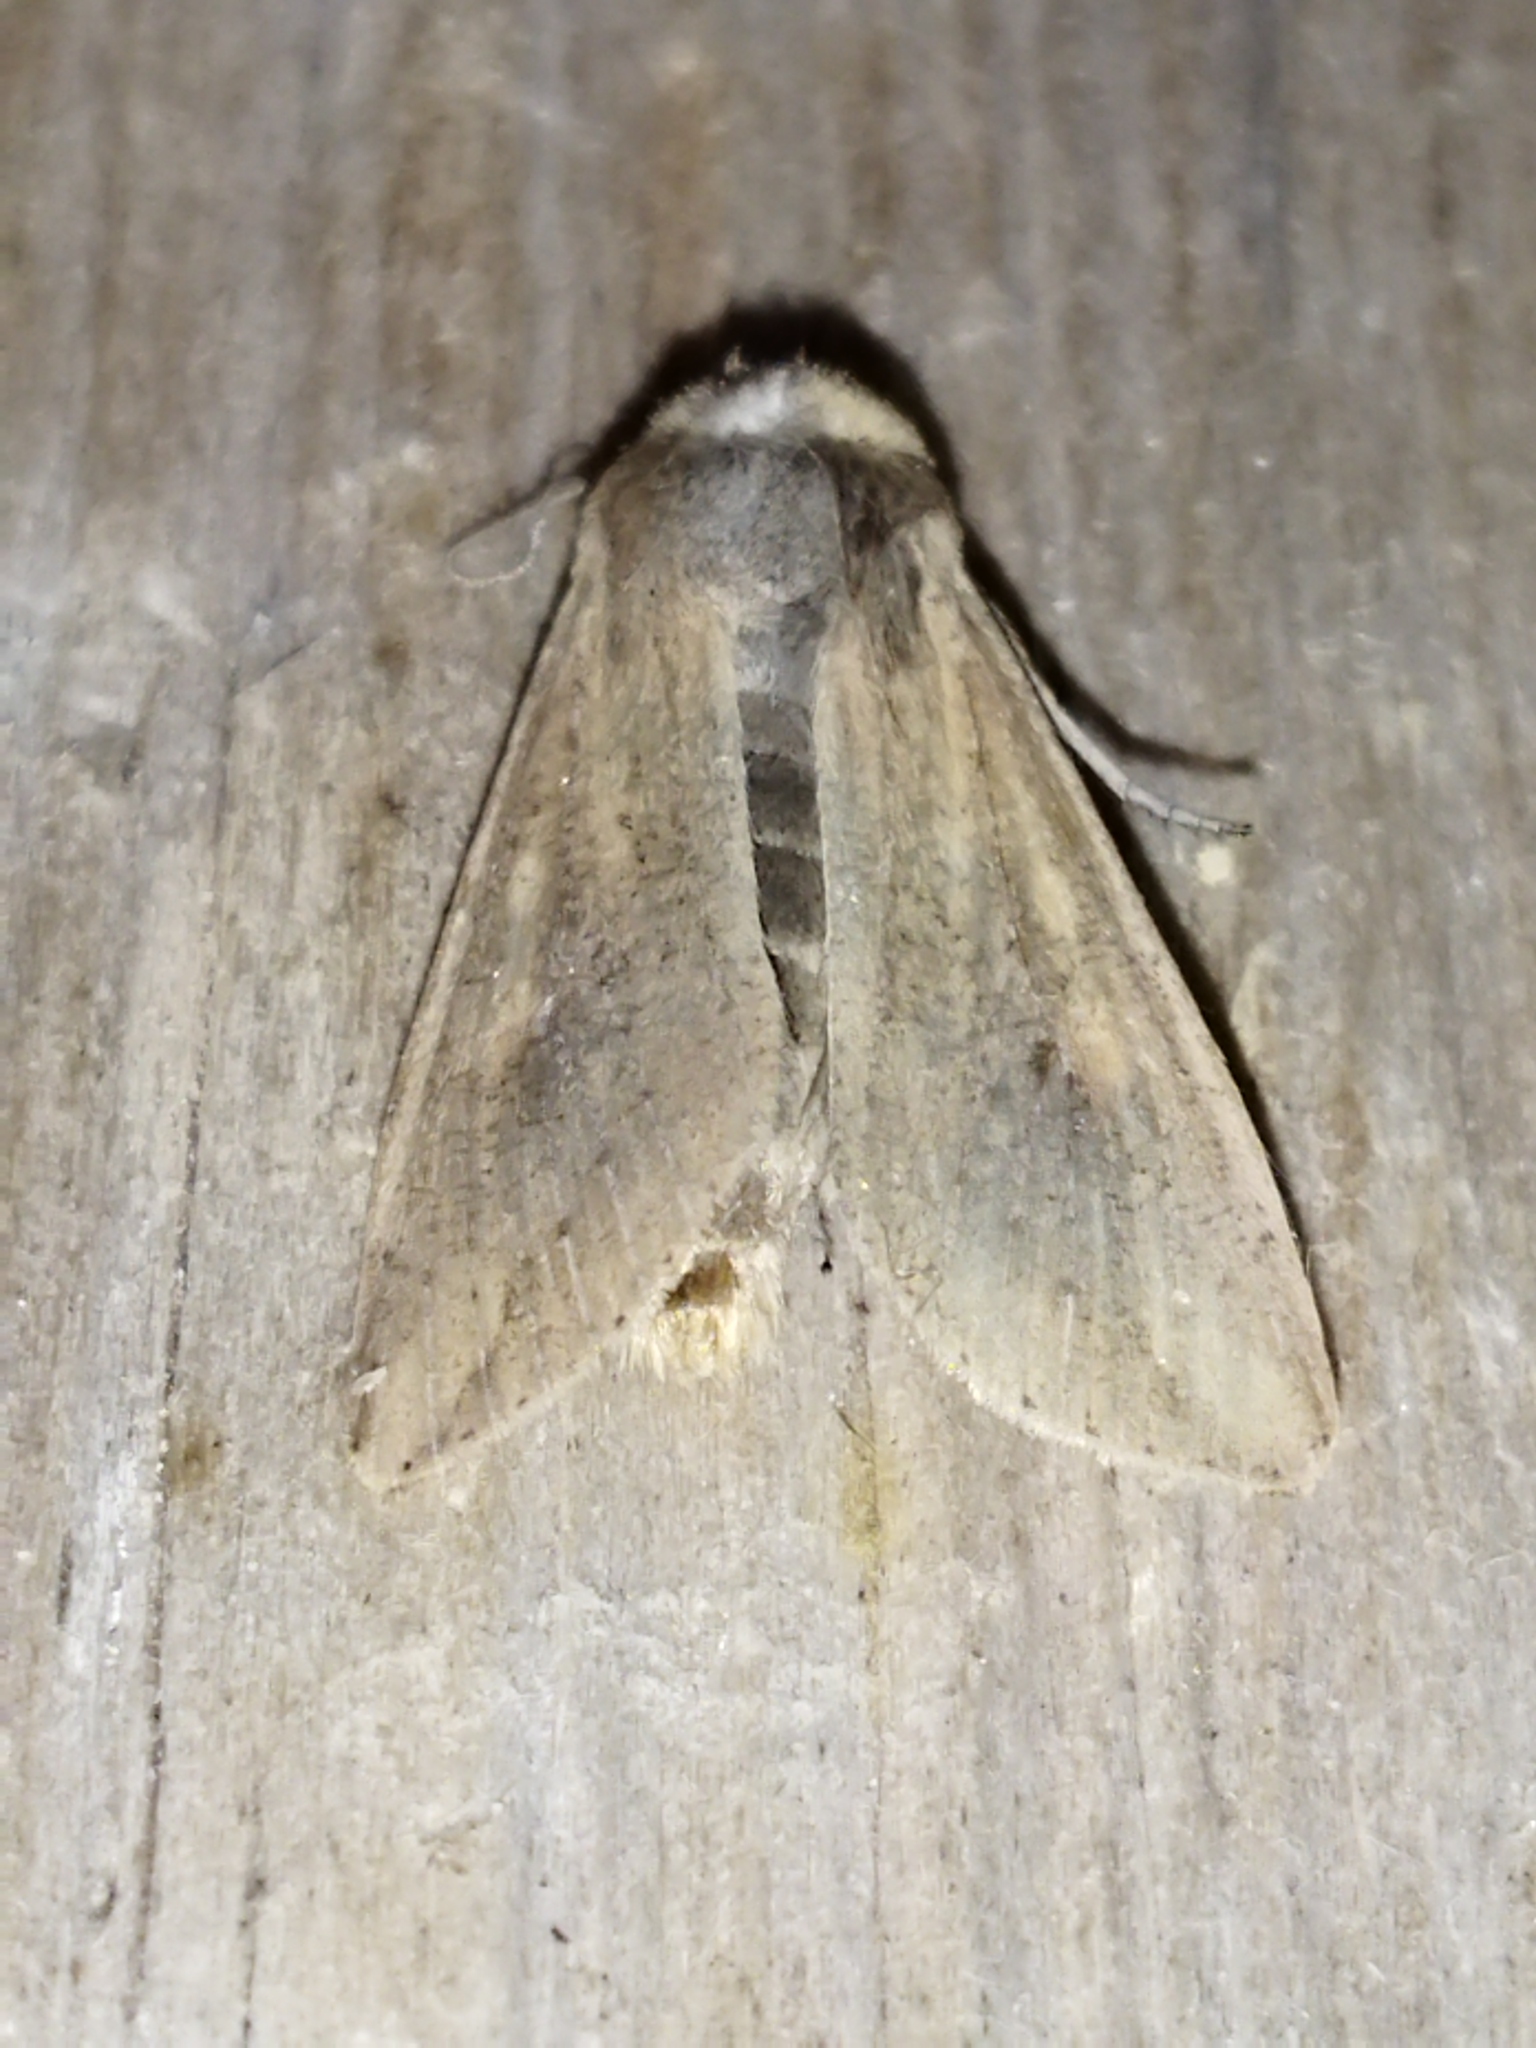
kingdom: Animalia
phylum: Arthropoda
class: Insecta
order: Lepidoptera
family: Noctuidae
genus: Mythimna
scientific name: Mythimna unipuncta
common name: White-speck
